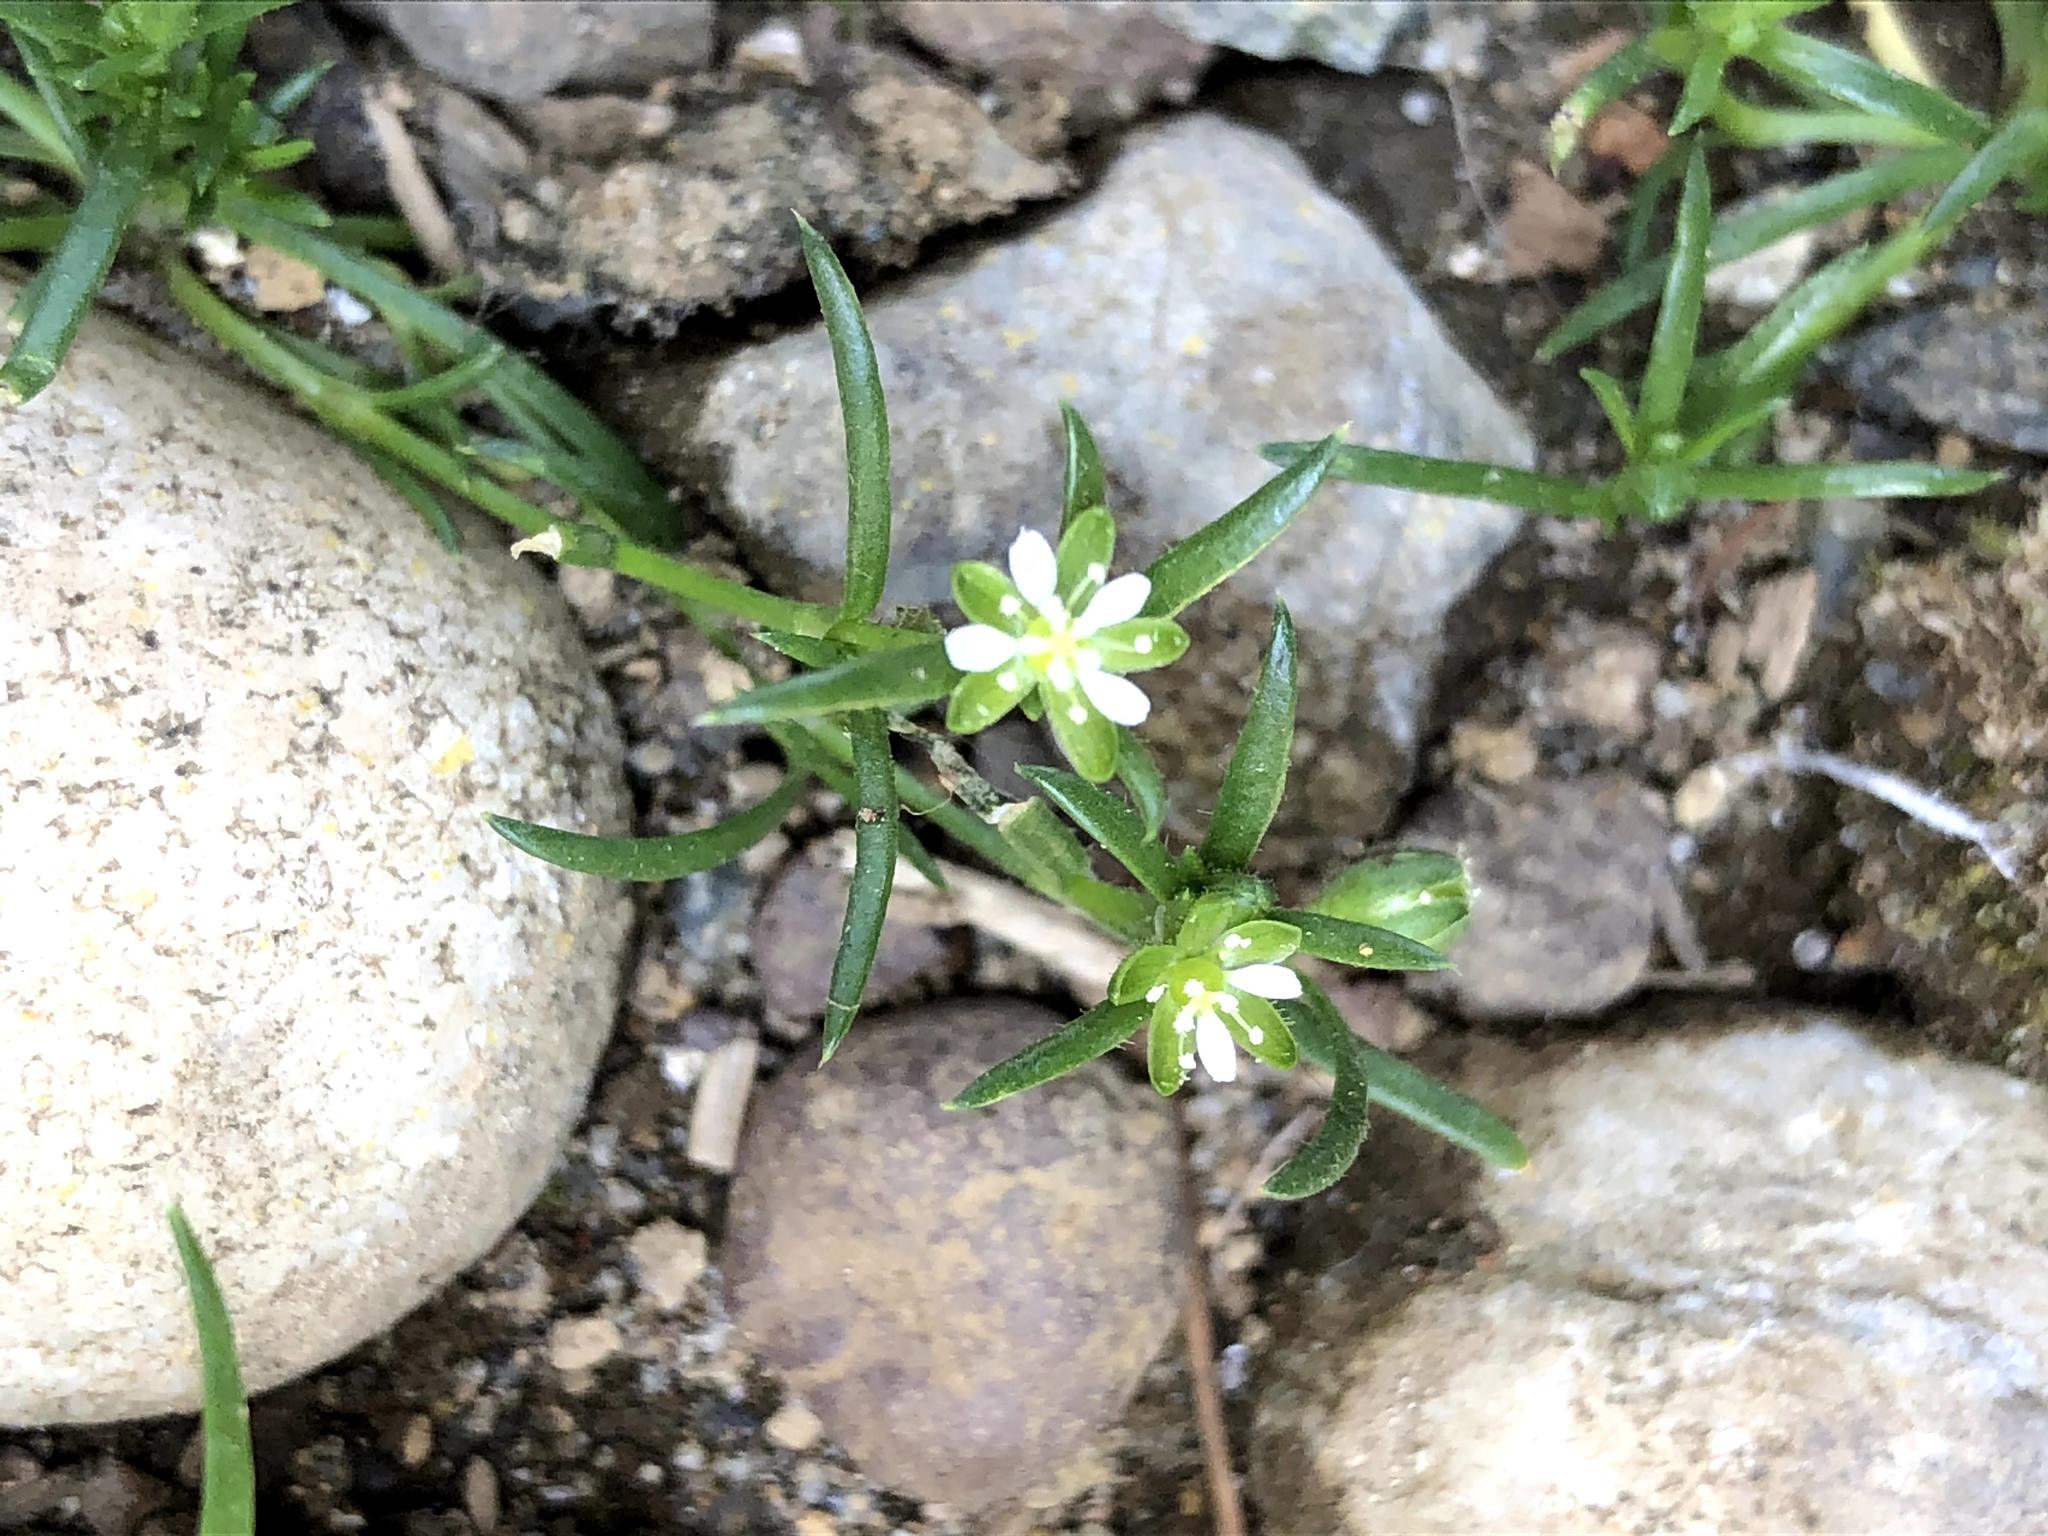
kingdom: Plantae
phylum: Tracheophyta
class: Magnoliopsida
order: Caryophyllales
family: Caryophyllaceae
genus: Sagina
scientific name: Sagina japonica
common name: Japanese pearlwort
